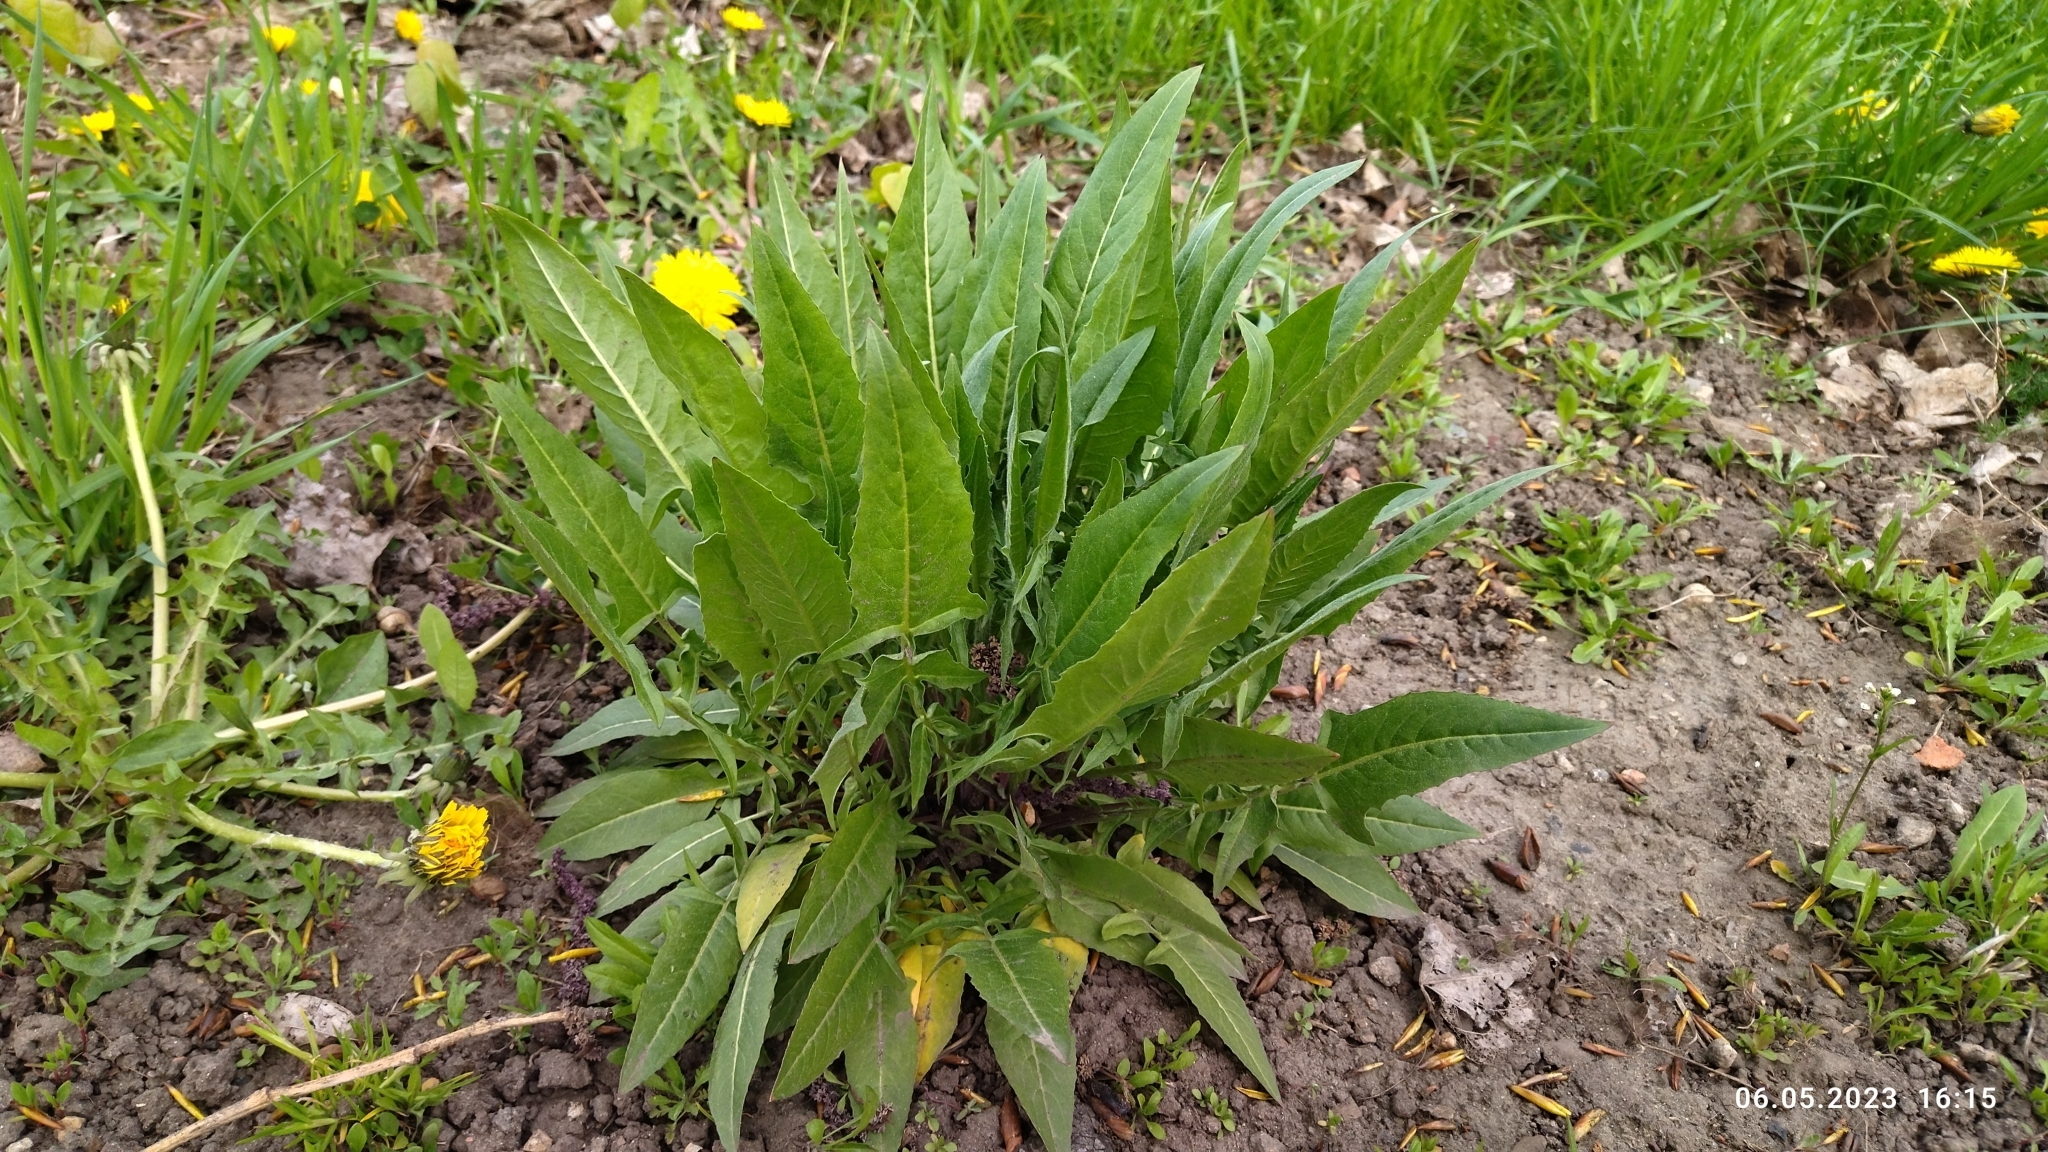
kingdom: Plantae
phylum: Tracheophyta
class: Magnoliopsida
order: Brassicales
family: Brassicaceae
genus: Bunias
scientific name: Bunias orientalis
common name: Warty-cabbage
